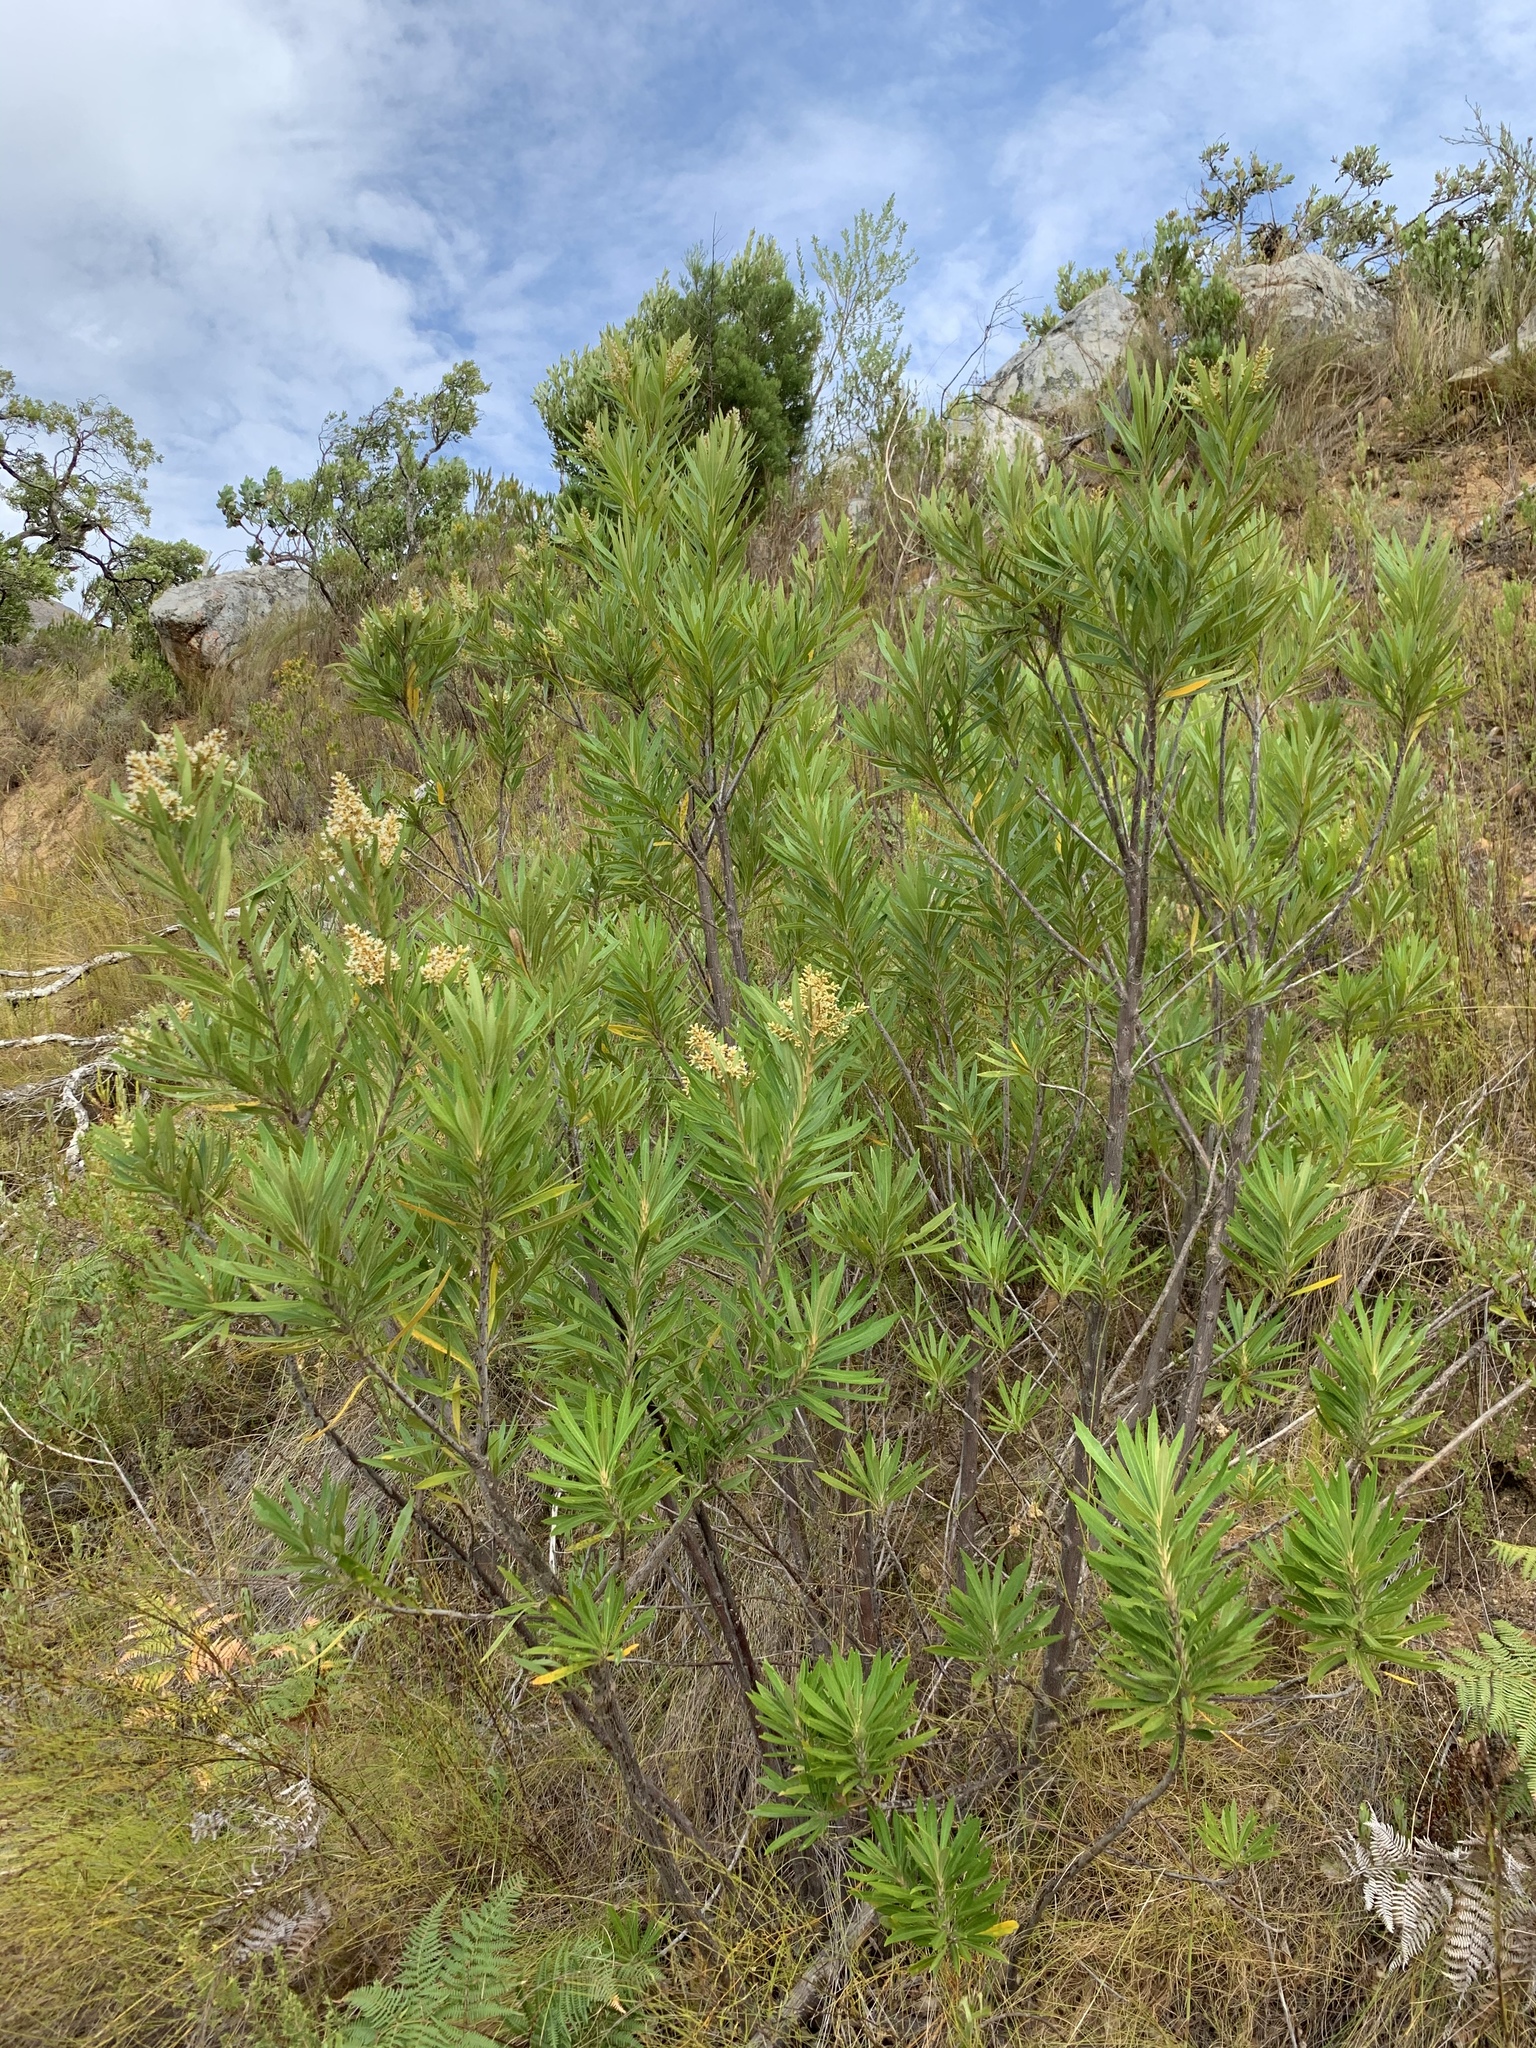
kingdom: Plantae
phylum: Tracheophyta
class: Magnoliopsida
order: Asterales
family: Asteraceae
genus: Brachylaena
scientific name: Brachylaena neriifolia
